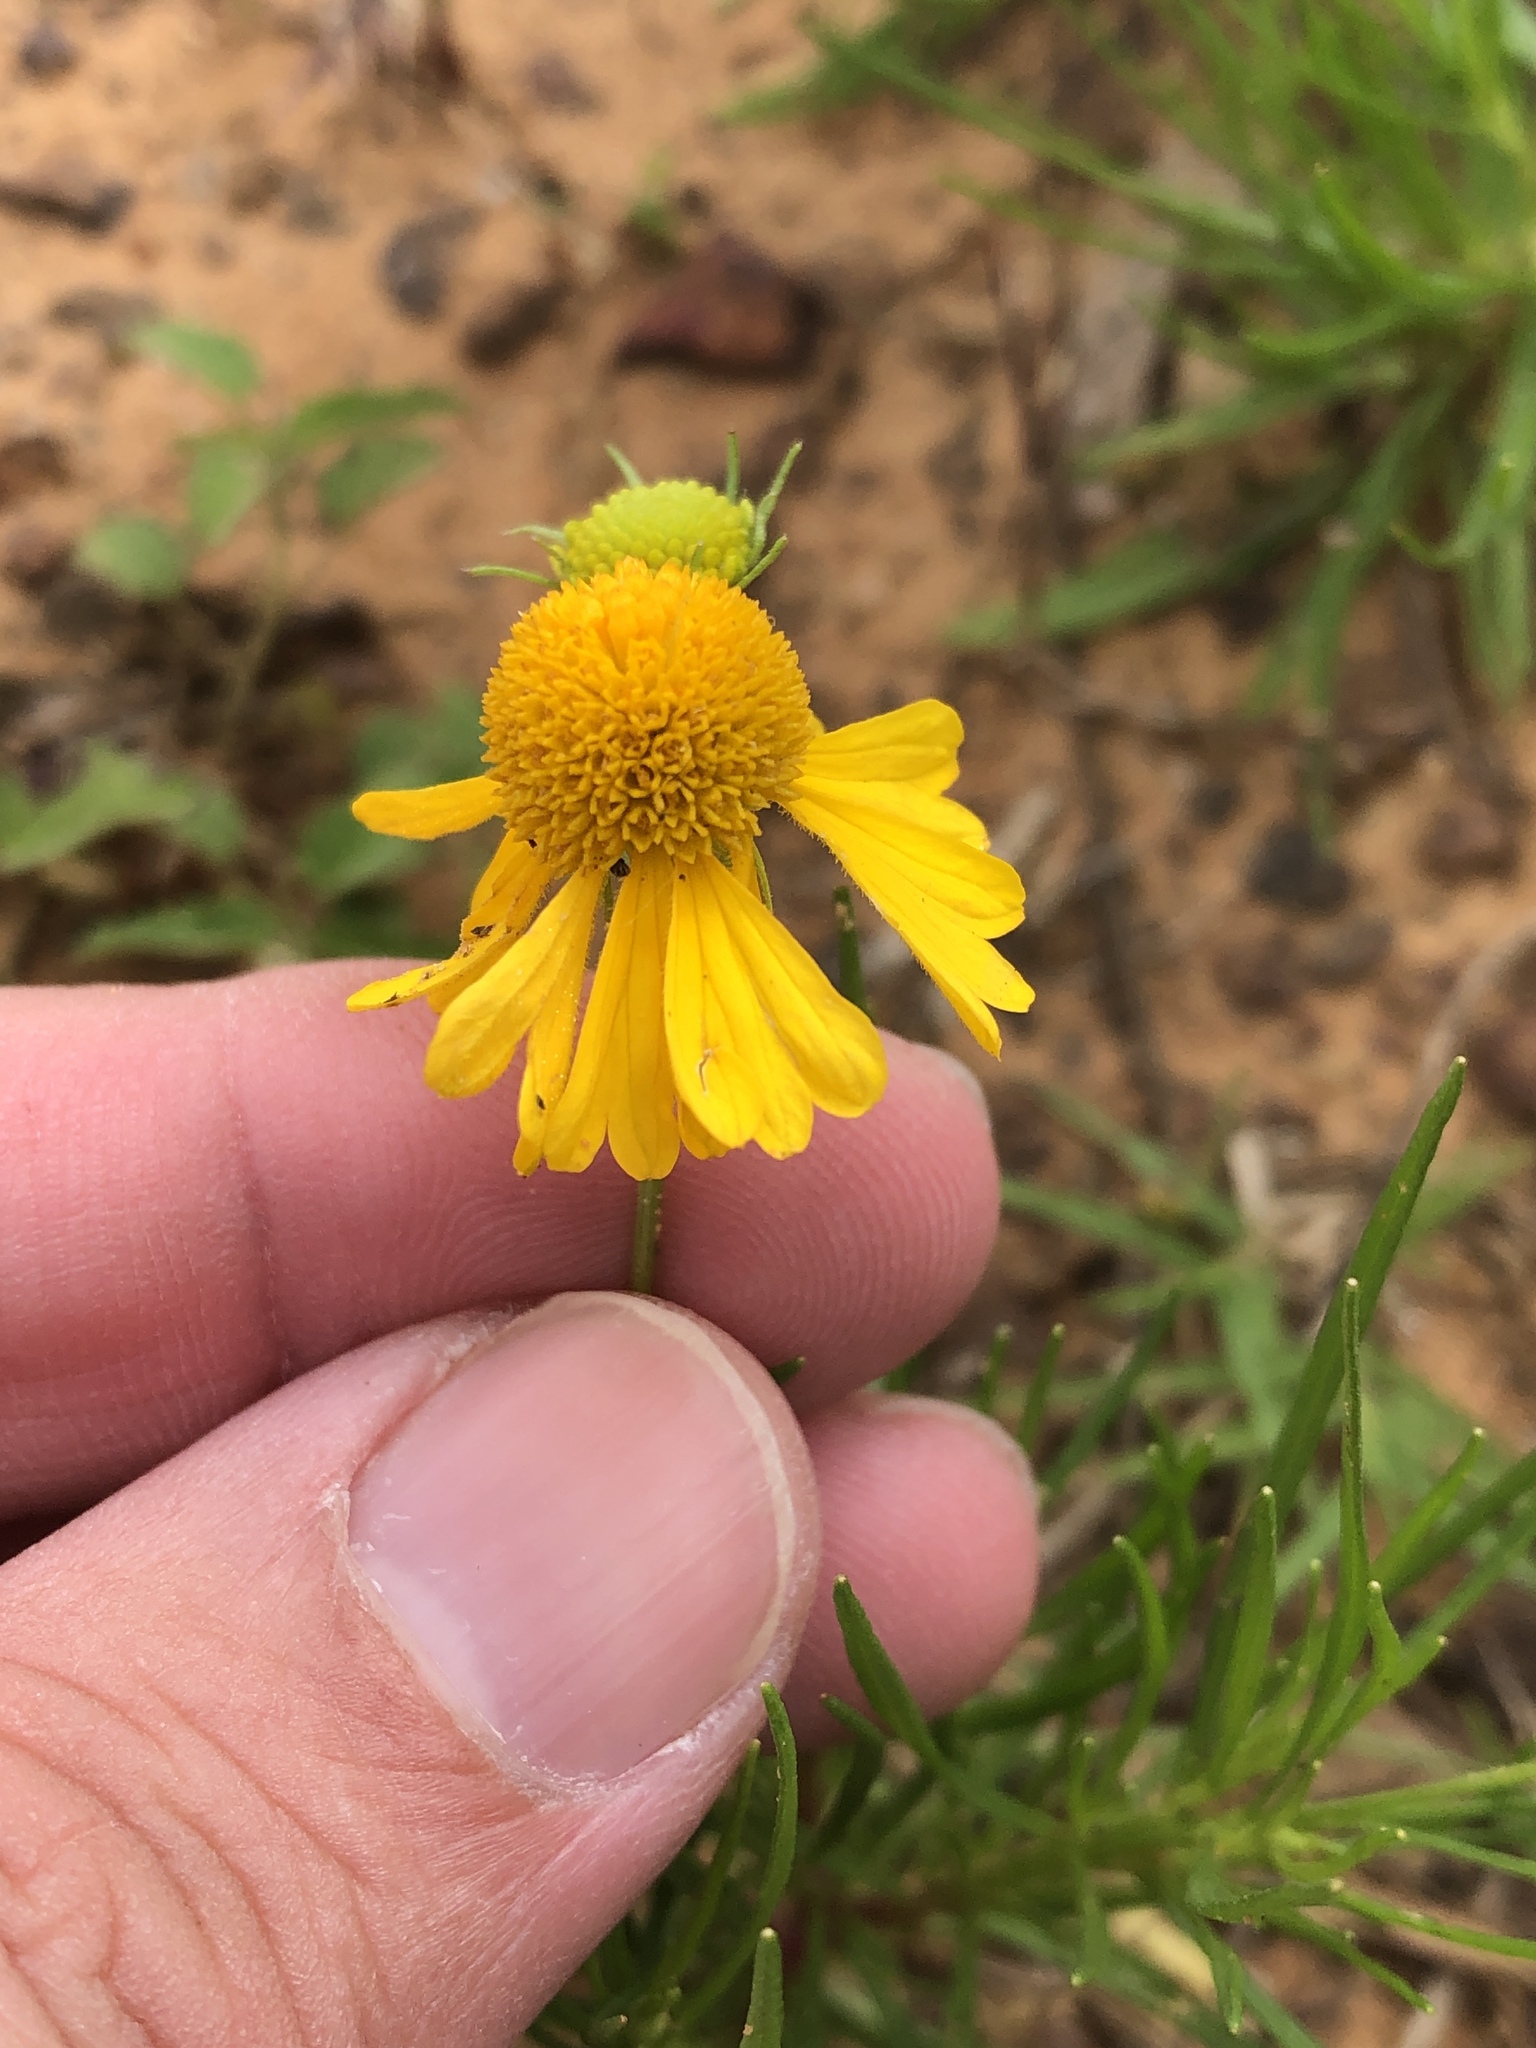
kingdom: Plantae
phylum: Tracheophyta
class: Magnoliopsida
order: Asterales
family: Asteraceae
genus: Helenium
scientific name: Helenium amarum
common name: Bitter sneezeweed
